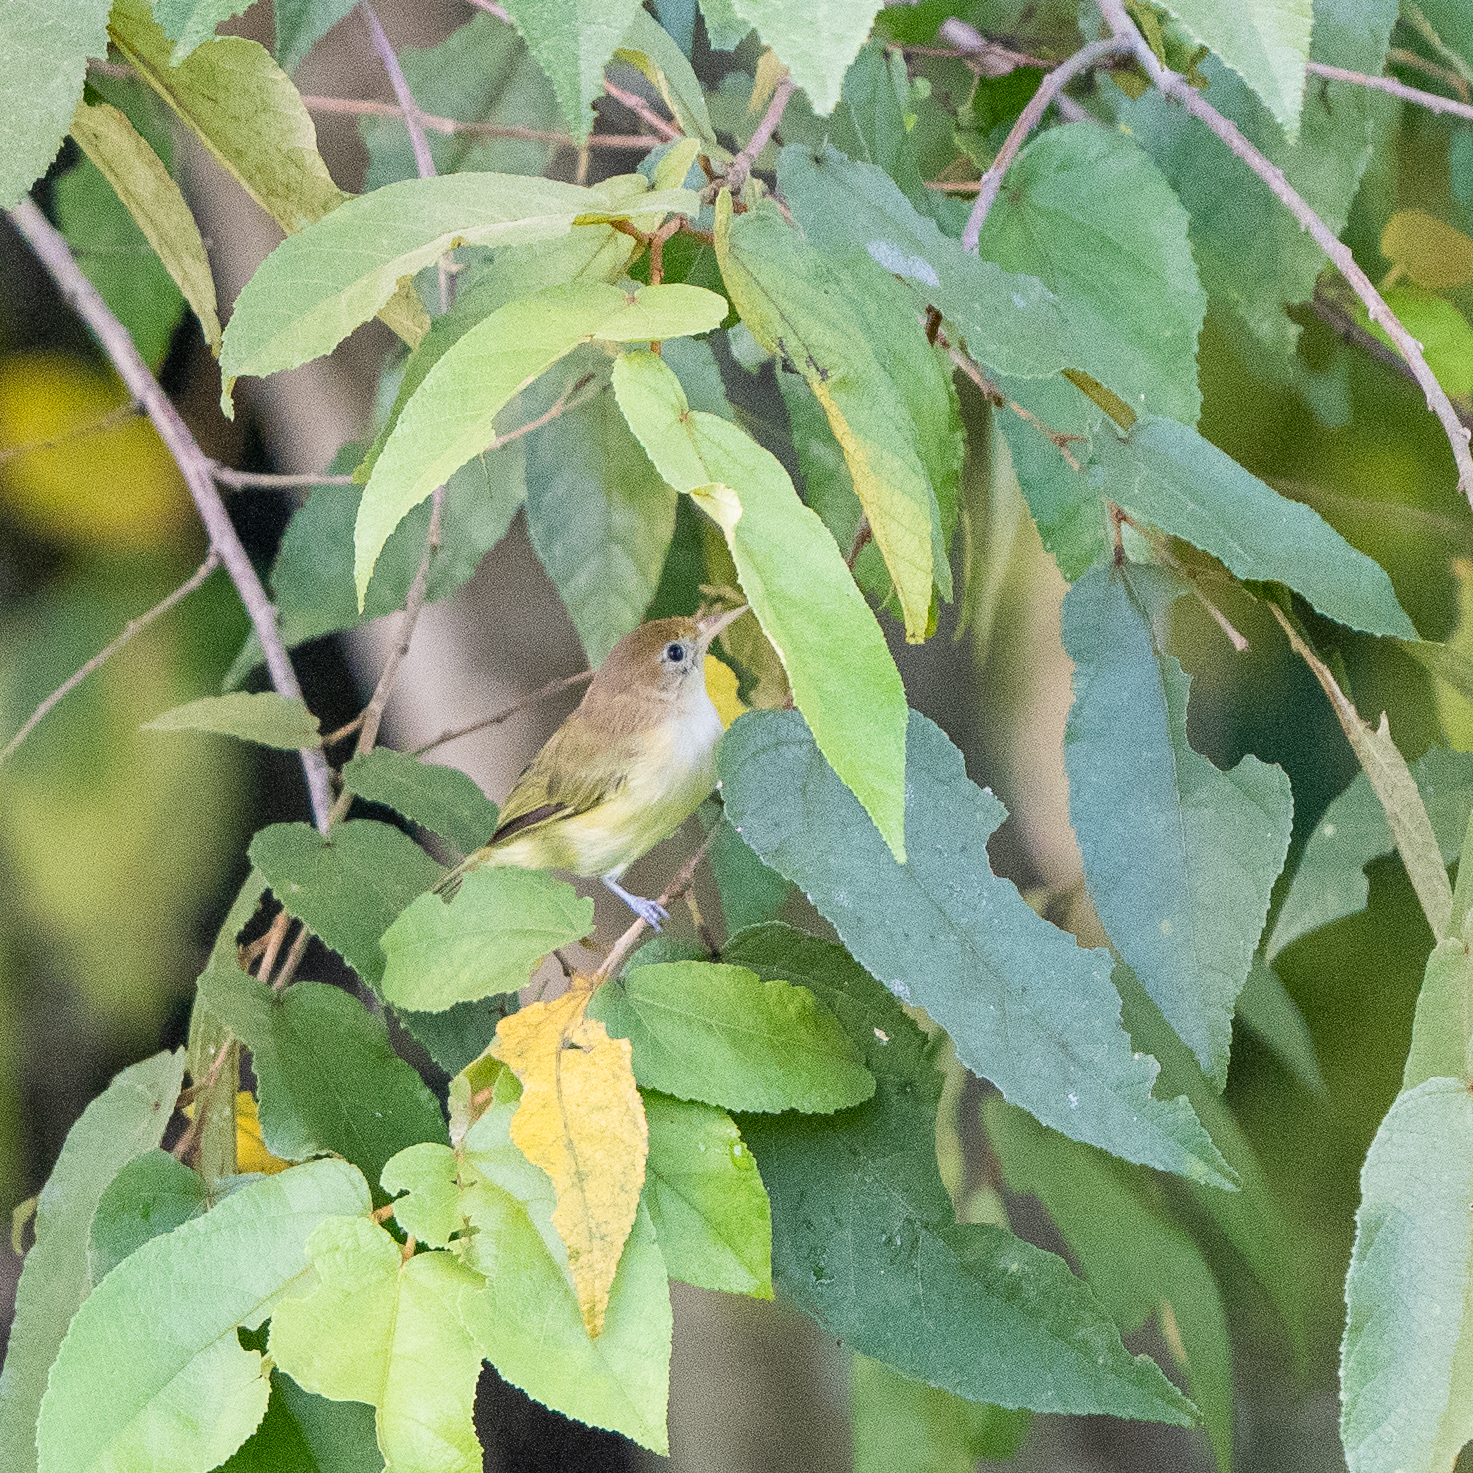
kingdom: Animalia
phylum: Chordata
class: Aves
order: Passeriformes
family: Vireonidae
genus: Hylophilus
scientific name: Hylophilus aurantiifrons
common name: Golden-fronted greenlet
